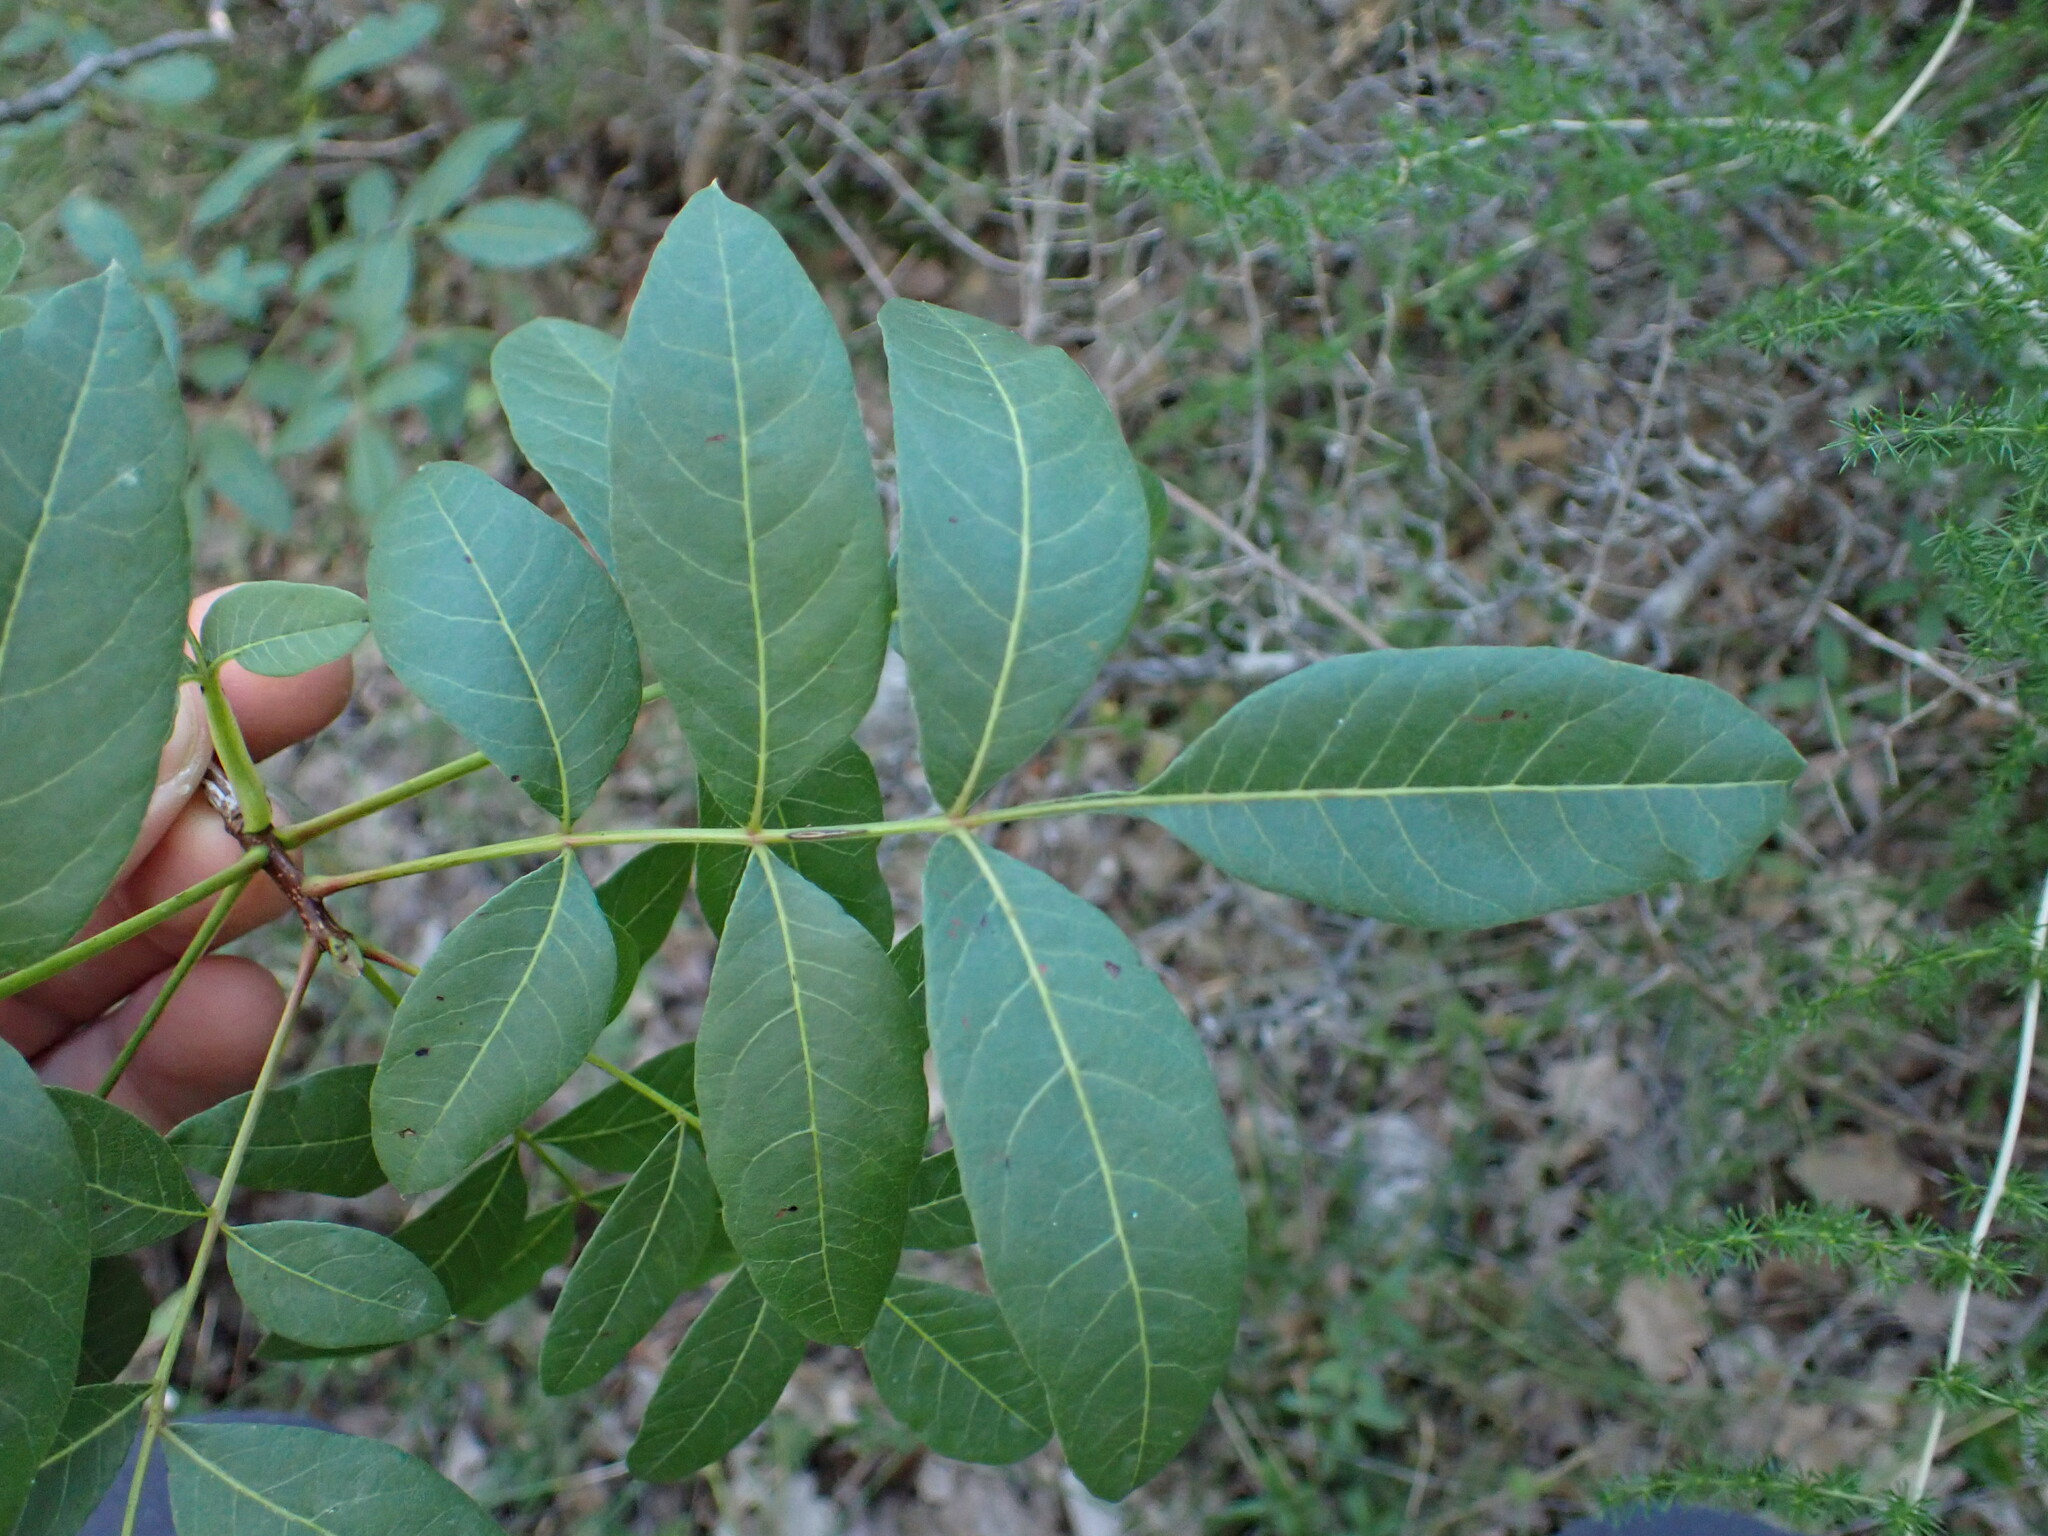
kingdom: Plantae
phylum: Tracheophyta
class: Magnoliopsida
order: Sapindales
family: Anacardiaceae
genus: Pistacia
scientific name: Pistacia terebinthus
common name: Terebinth
